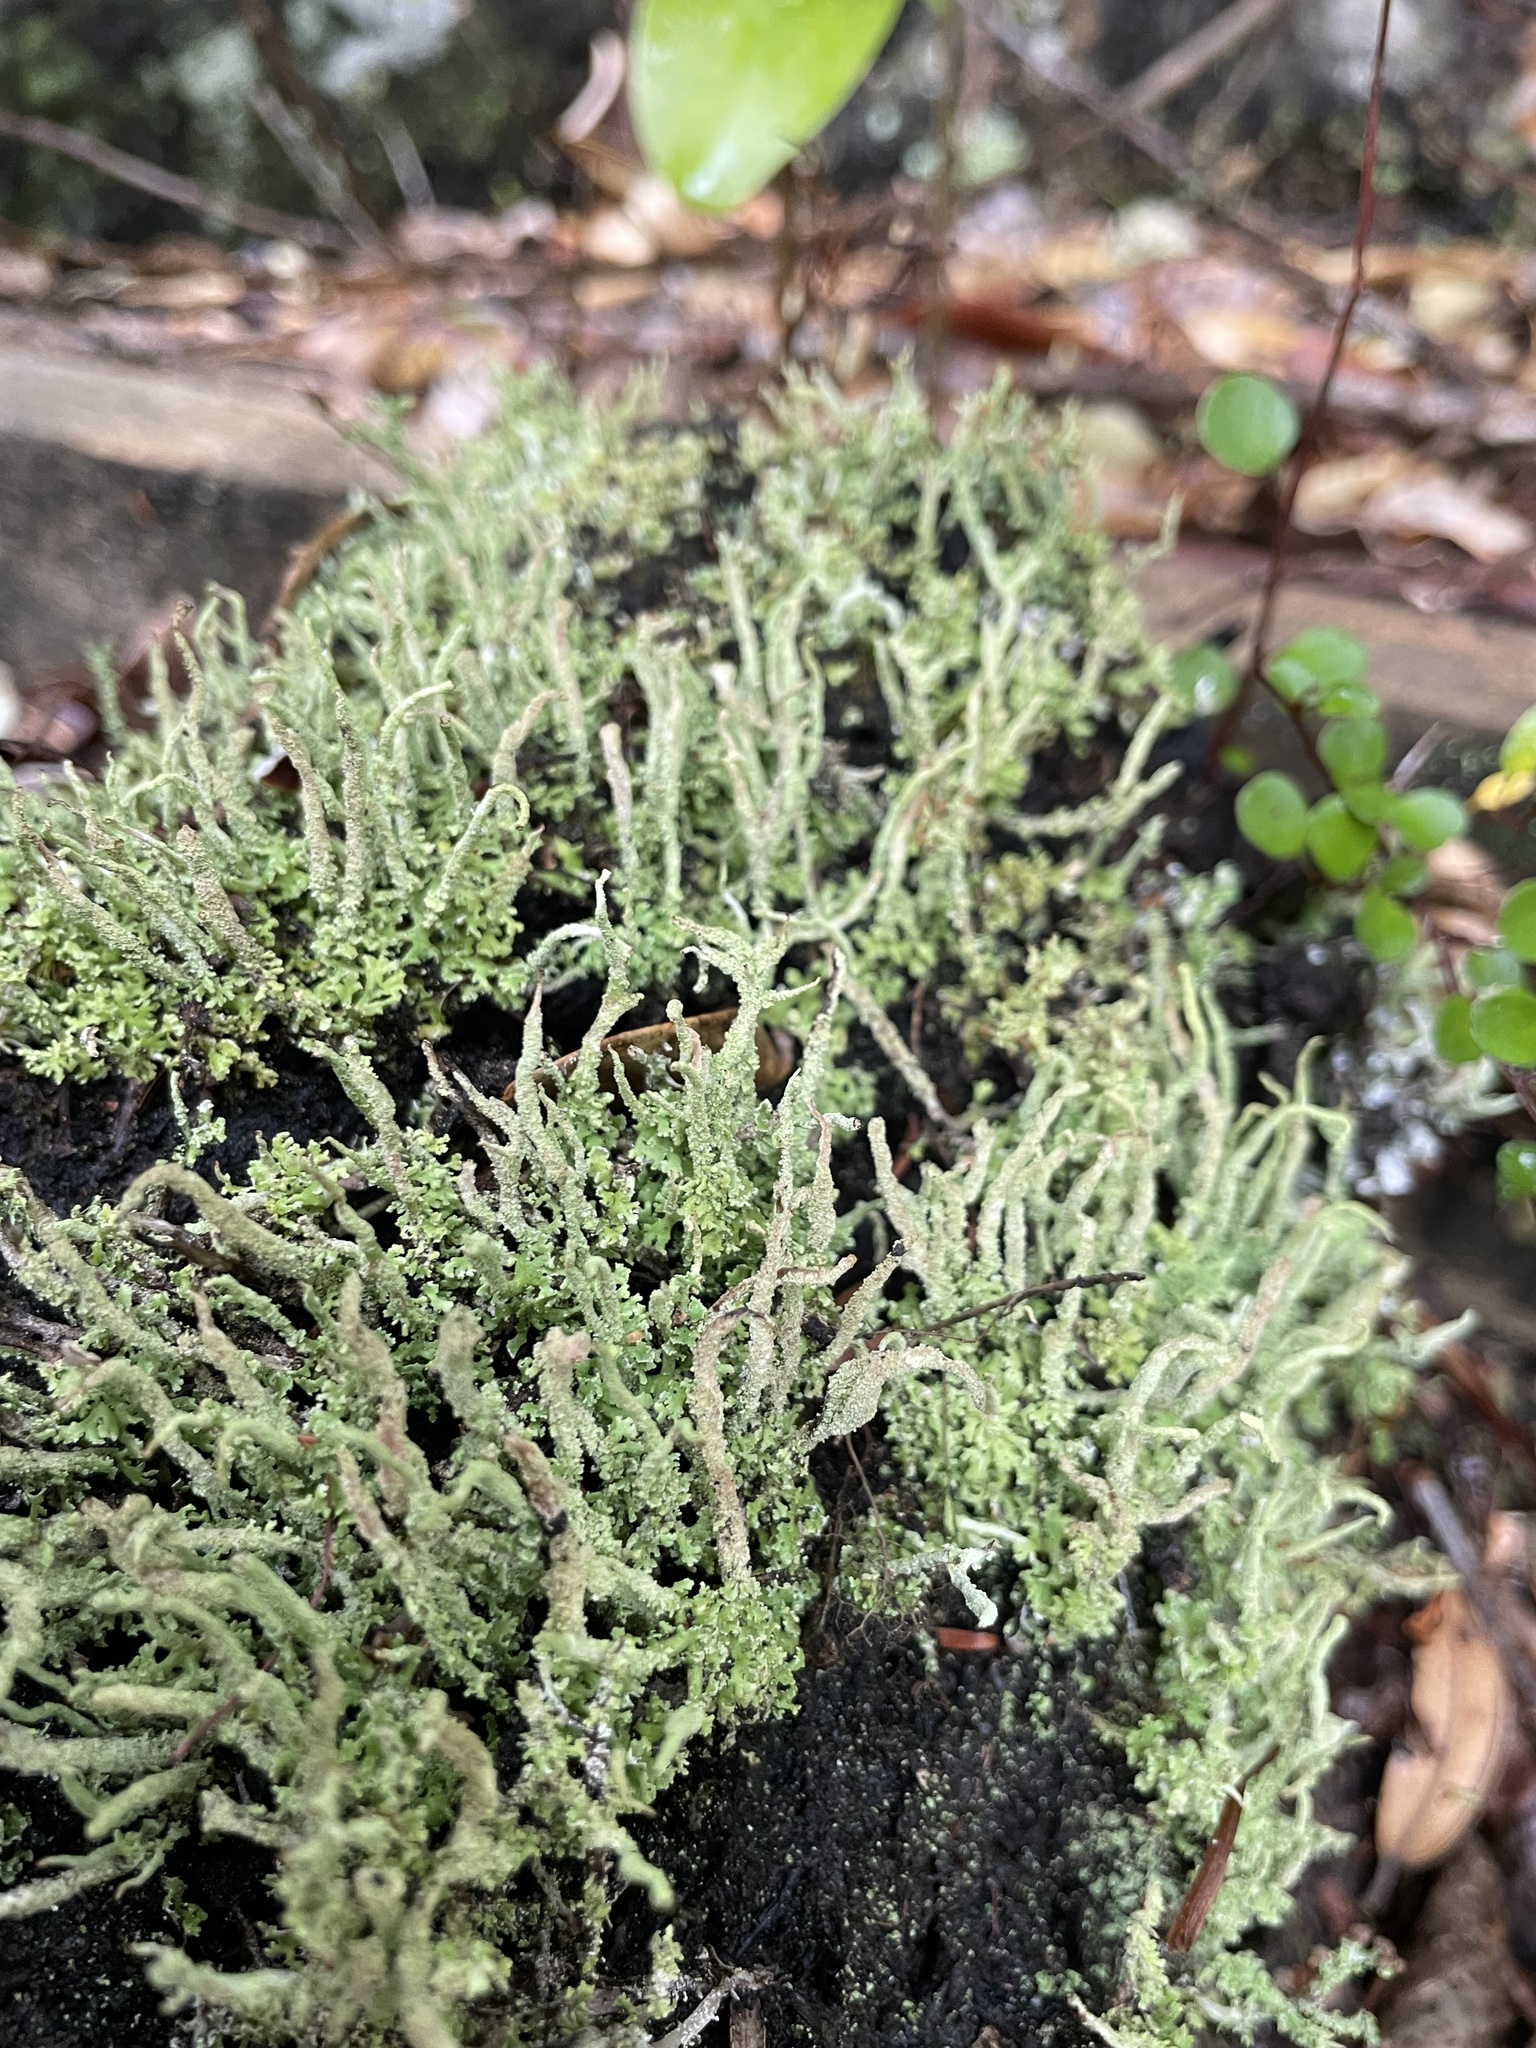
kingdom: Fungi
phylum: Ascomycota
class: Lecanoromycetes
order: Lecanorales
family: Cladoniaceae
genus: Cladonia
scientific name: Cladonia darwinii
